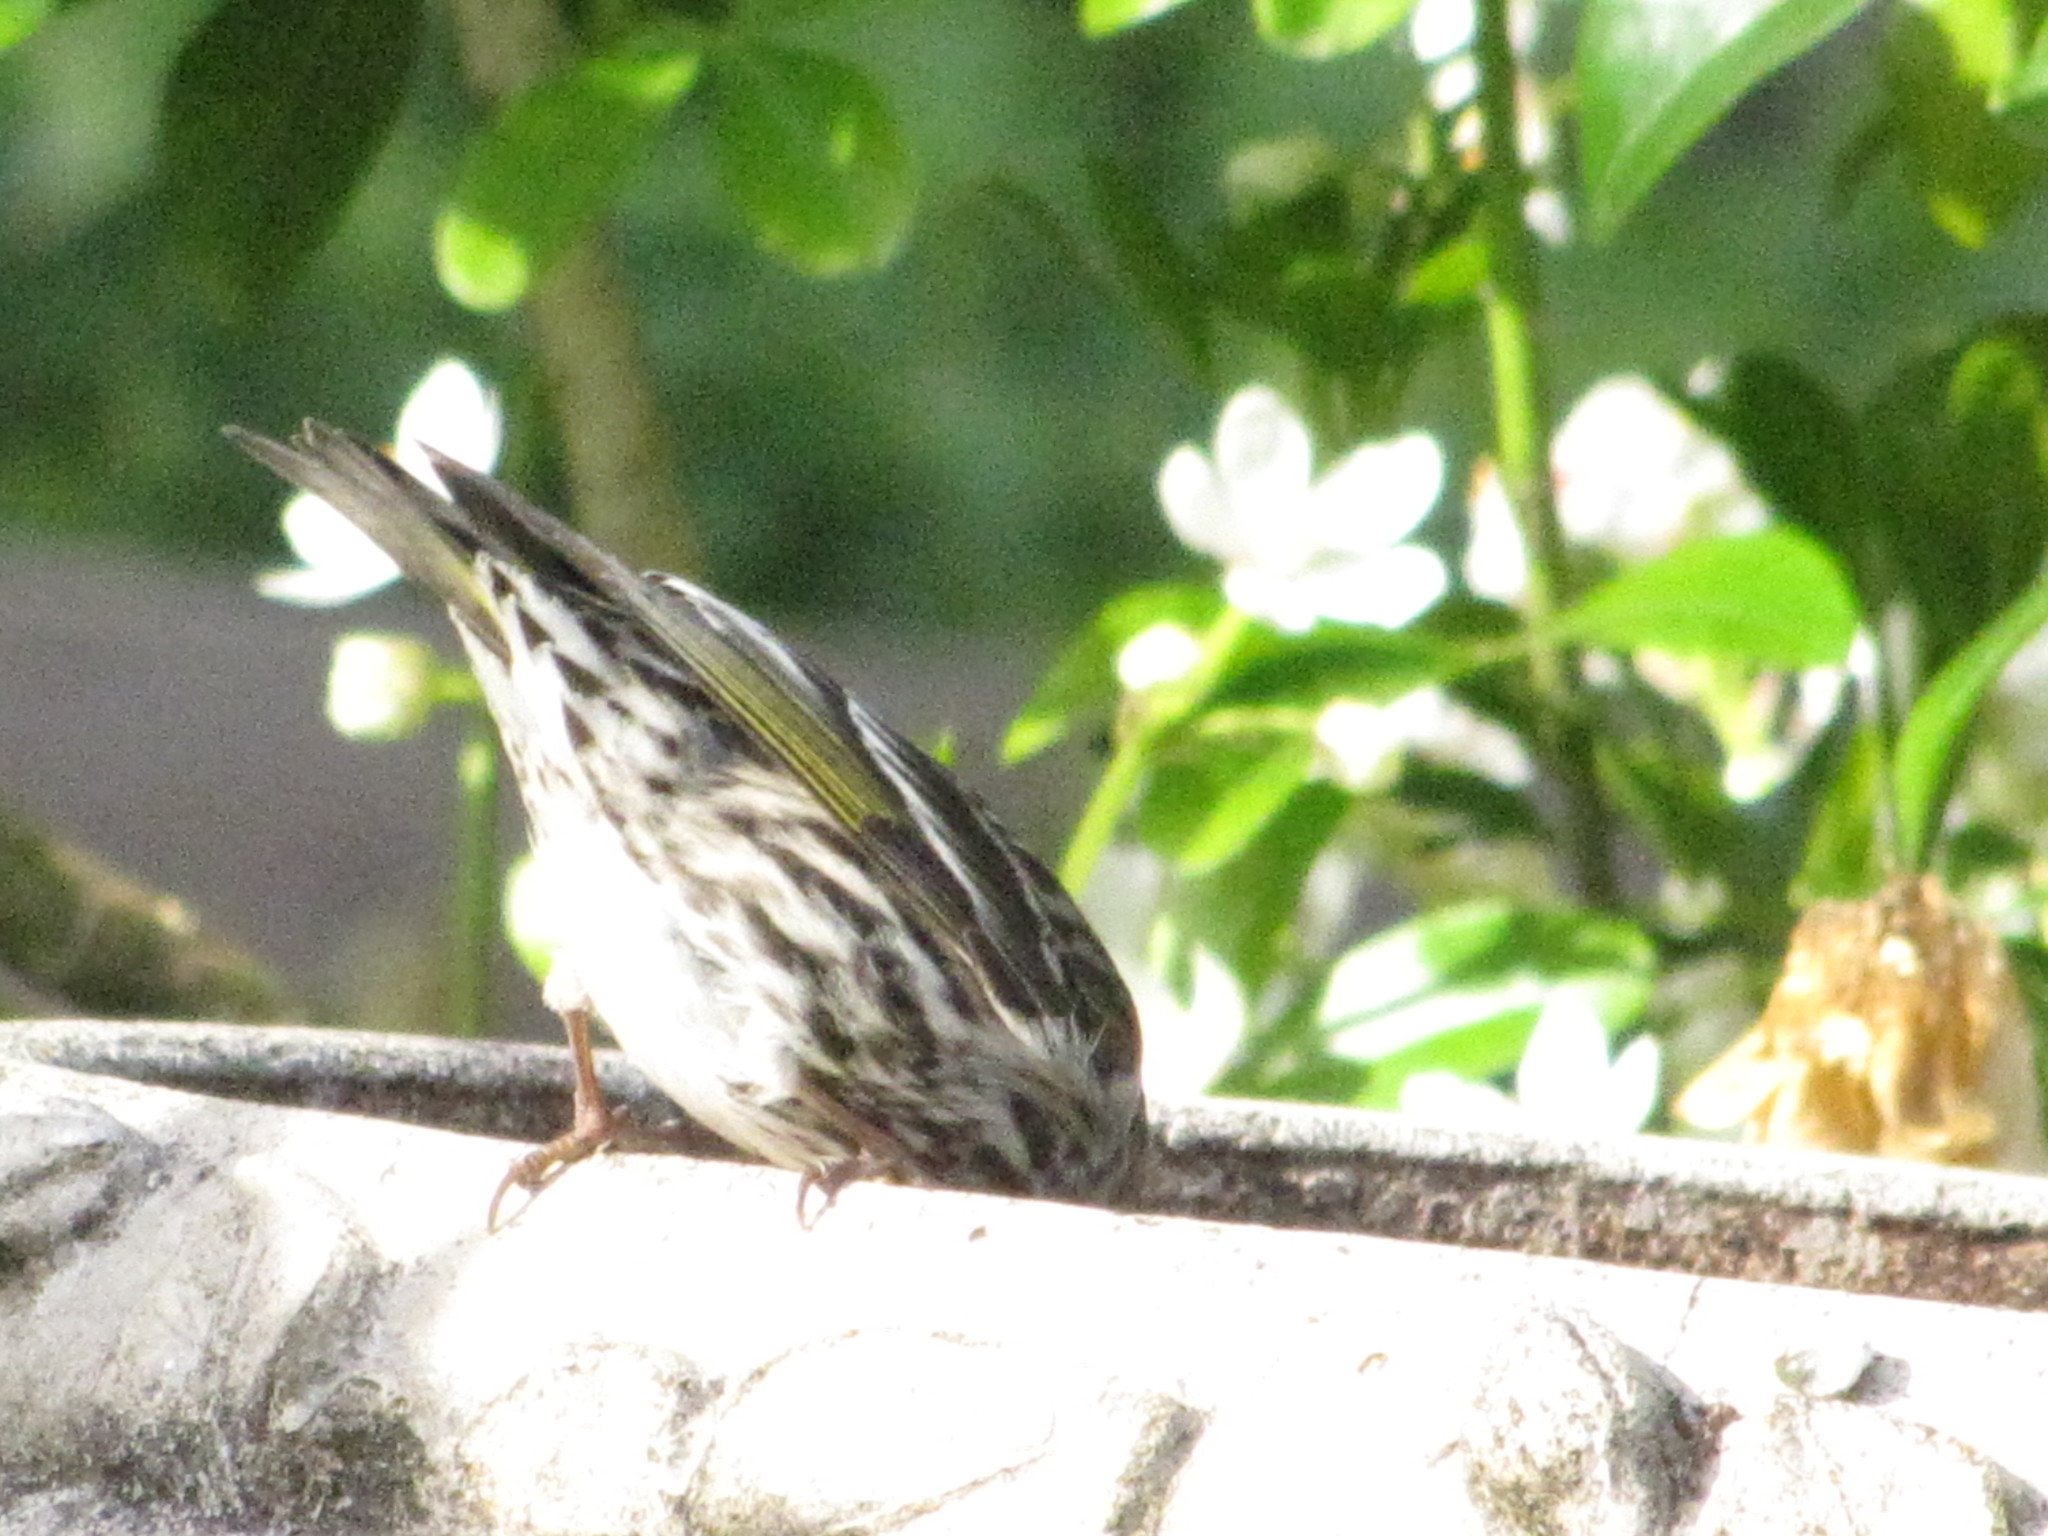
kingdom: Animalia
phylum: Chordata
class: Aves
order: Passeriformes
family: Fringillidae
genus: Spinus
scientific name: Spinus pinus
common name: Pine siskin
